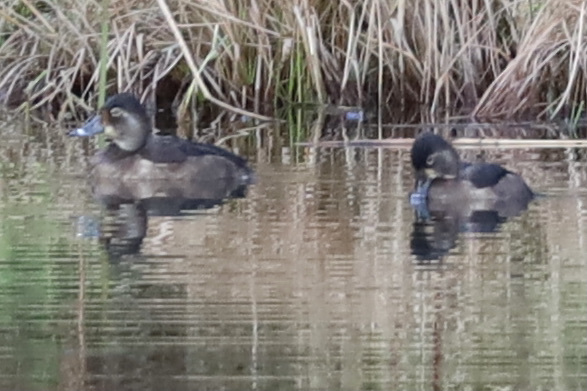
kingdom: Animalia
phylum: Chordata
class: Aves
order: Anseriformes
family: Anatidae
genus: Aythya
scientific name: Aythya collaris
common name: Ring-necked duck
